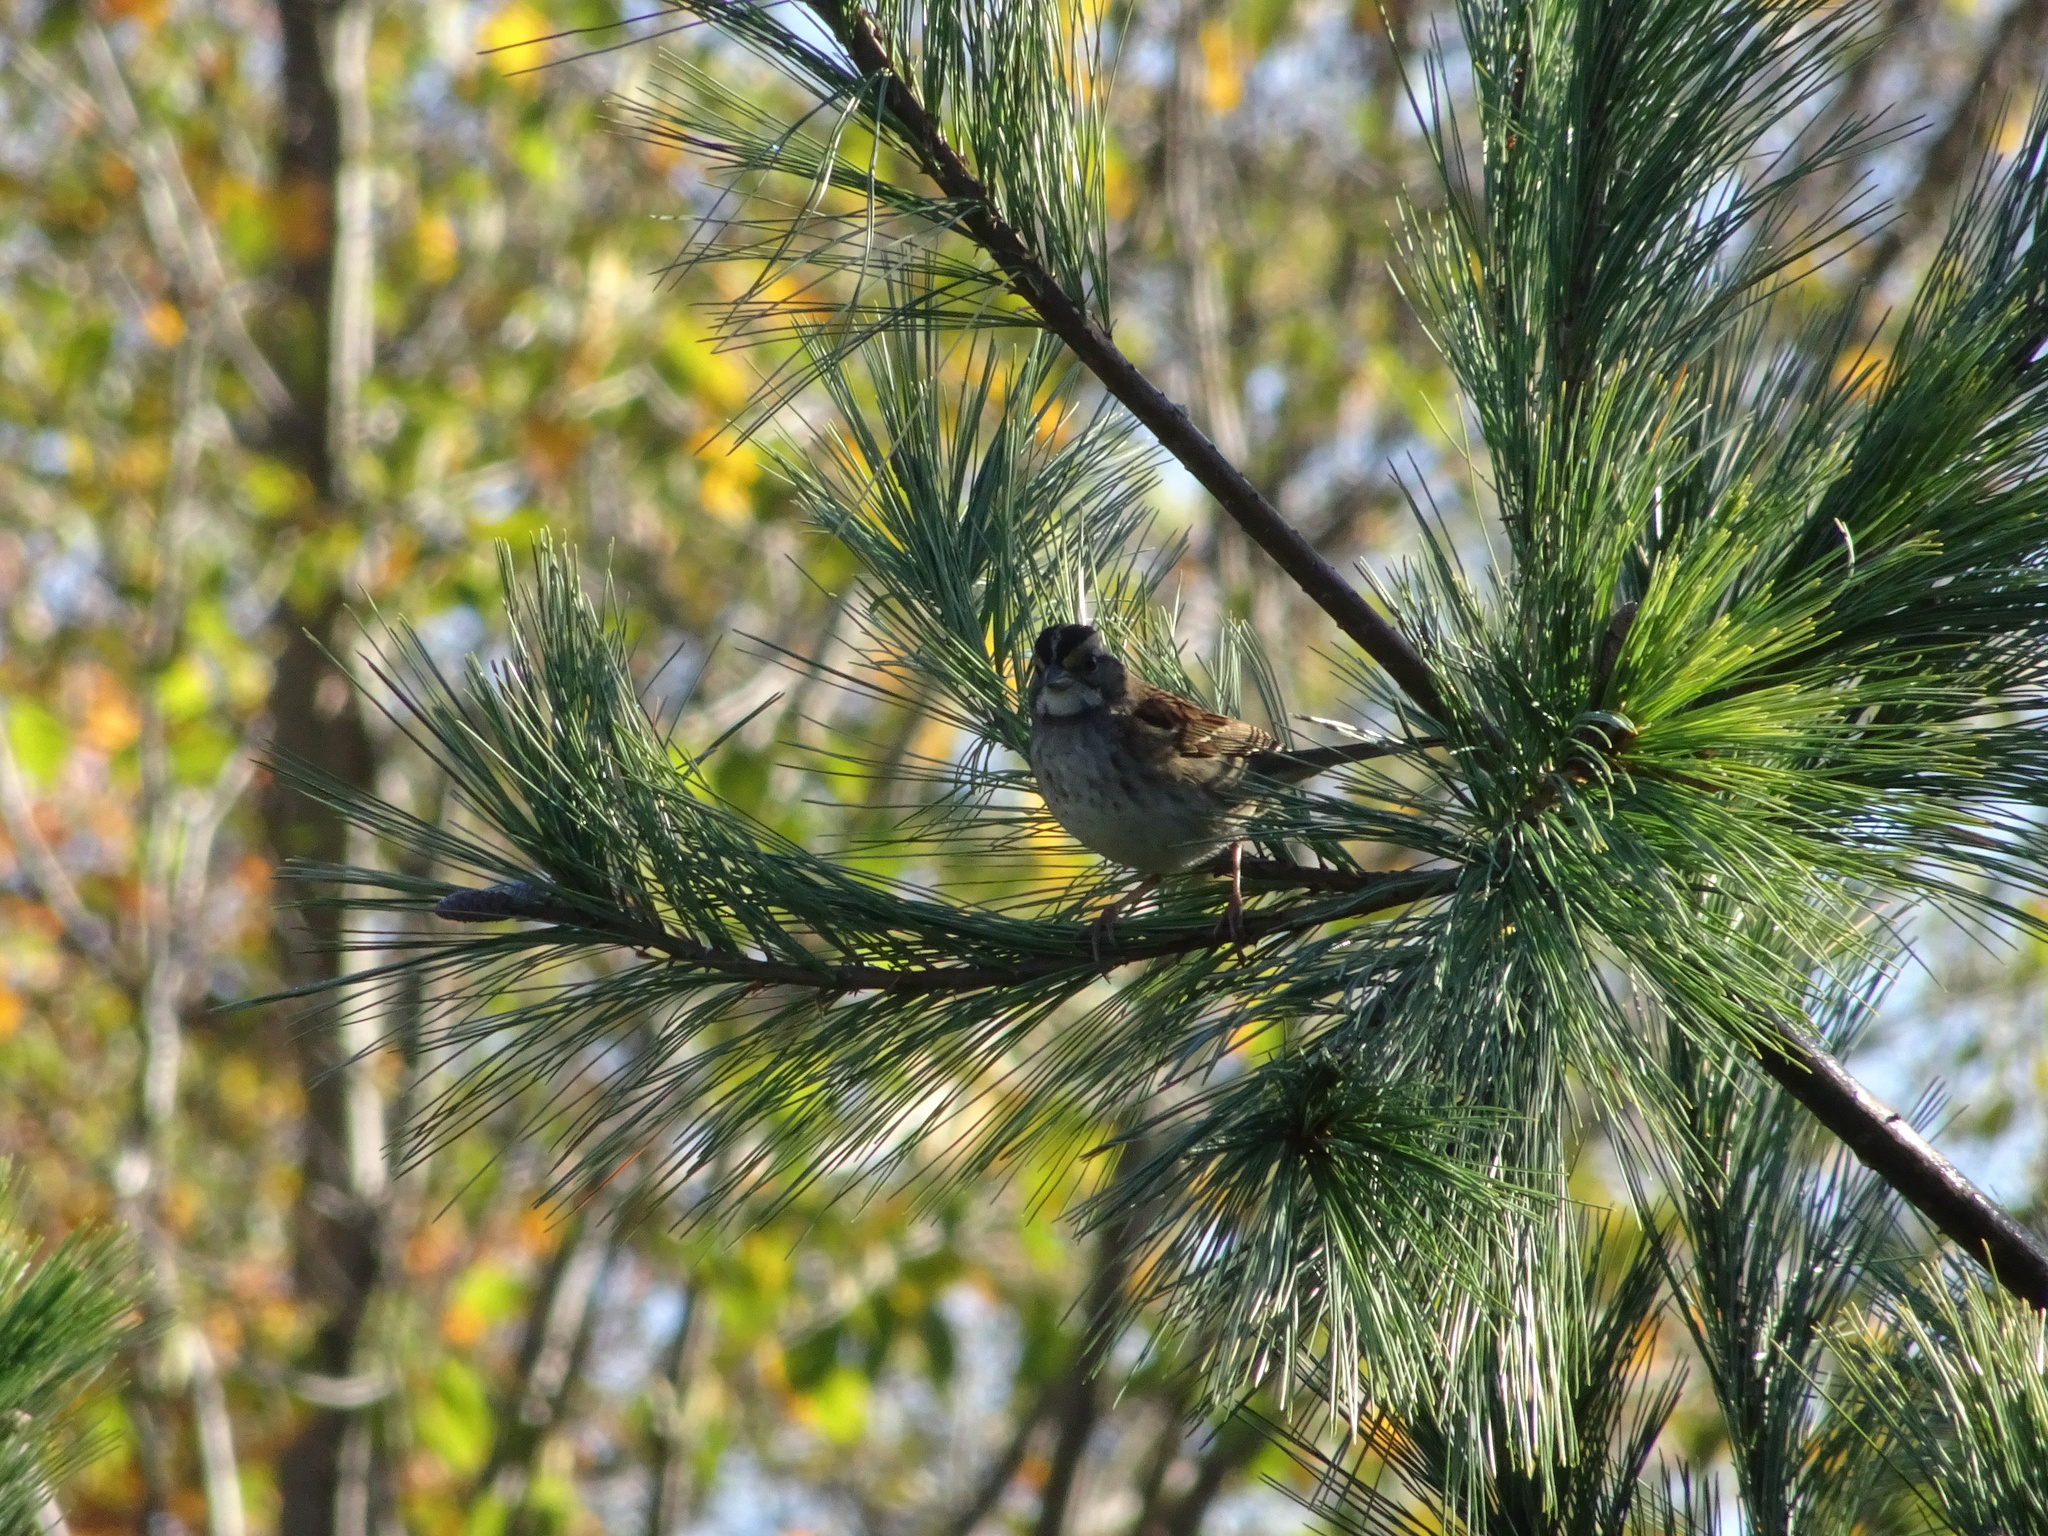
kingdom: Animalia
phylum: Chordata
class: Aves
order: Passeriformes
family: Passerellidae
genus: Zonotrichia
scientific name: Zonotrichia albicollis
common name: White-throated sparrow
